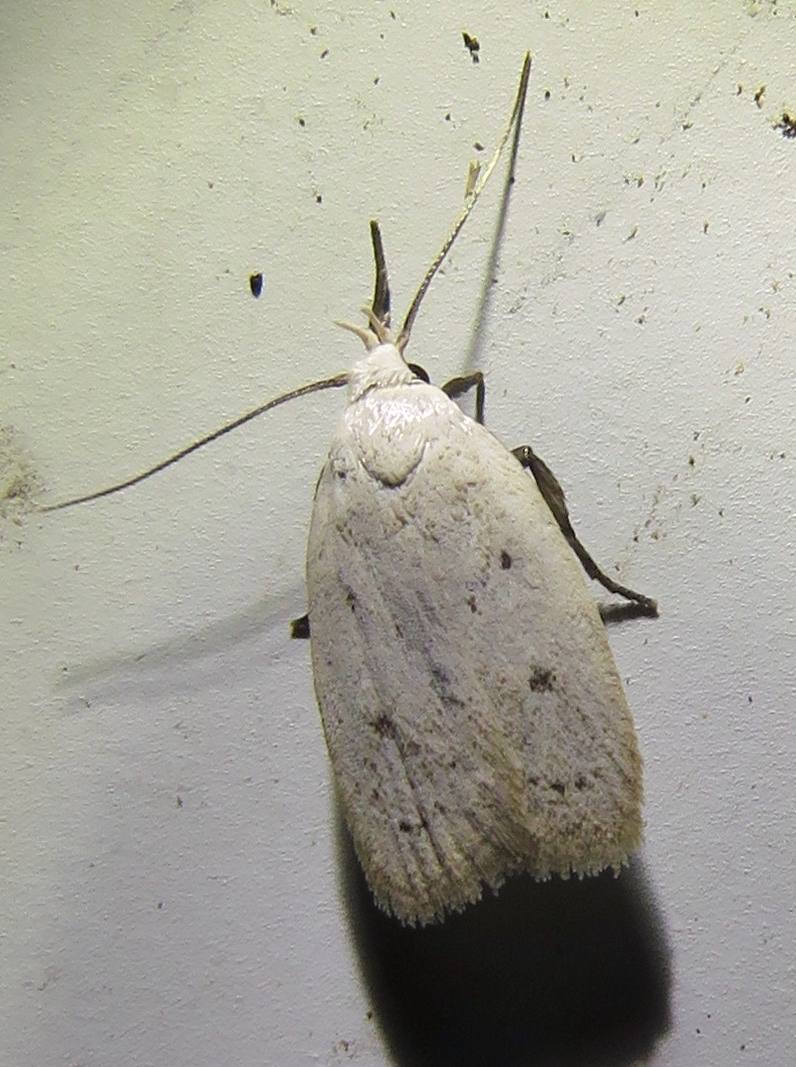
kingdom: Animalia
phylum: Arthropoda
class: Insecta
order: Lepidoptera
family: Oecophoridae
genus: Inga
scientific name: Inga cretacea
